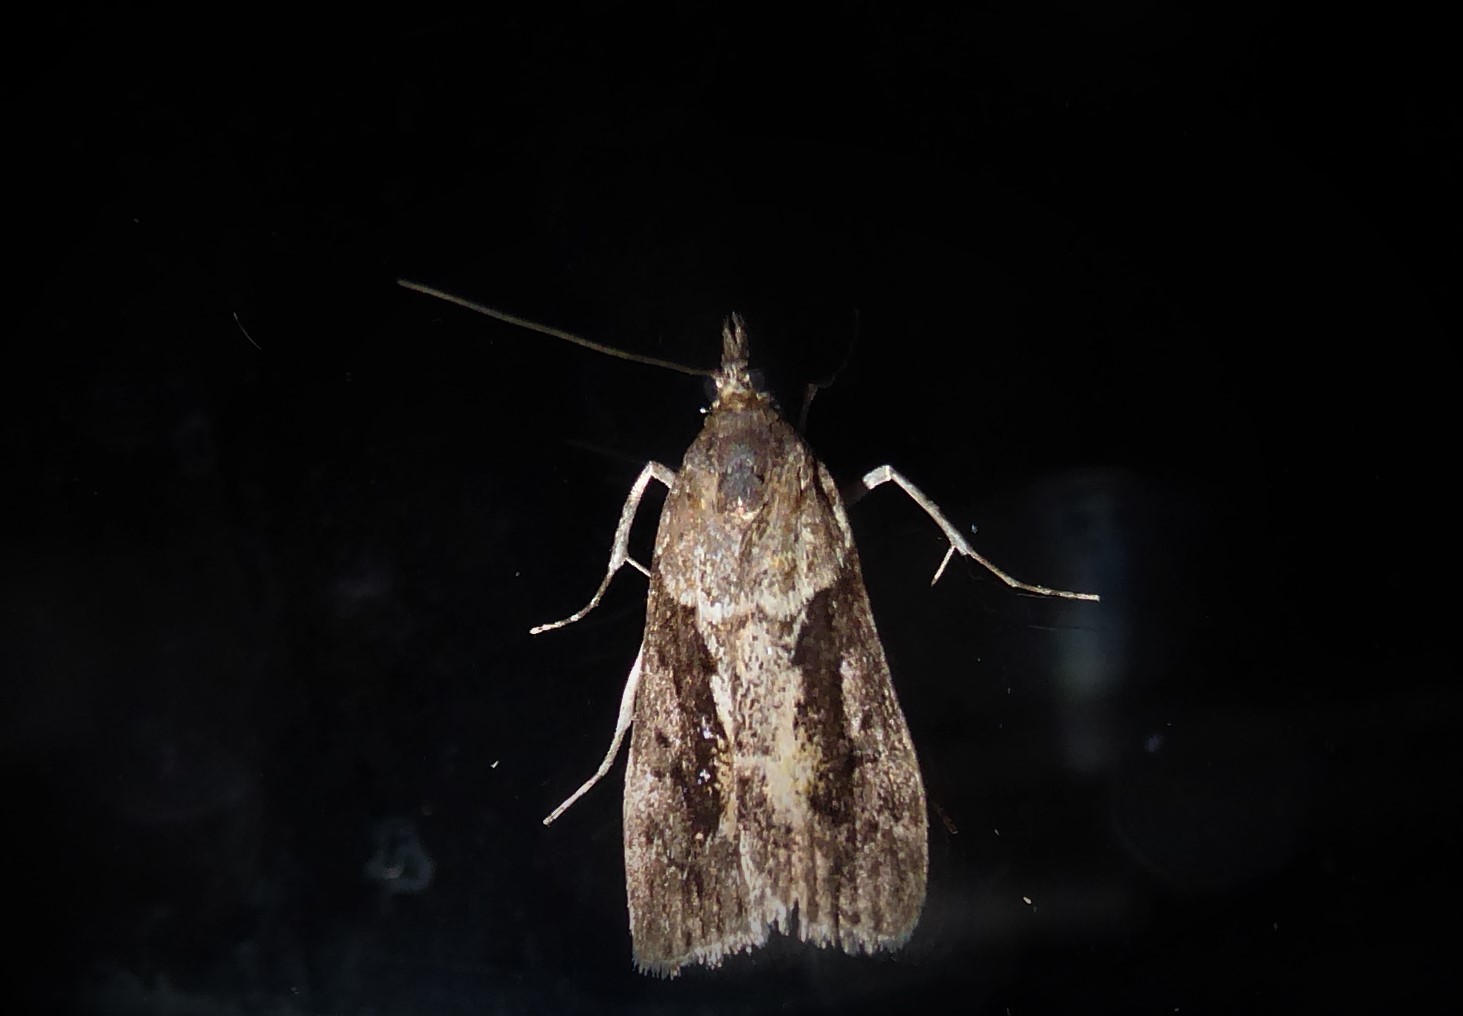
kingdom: Animalia
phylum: Arthropoda
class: Insecta
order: Lepidoptera
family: Crambidae
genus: Eudonia
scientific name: Eudonia submarginalis
